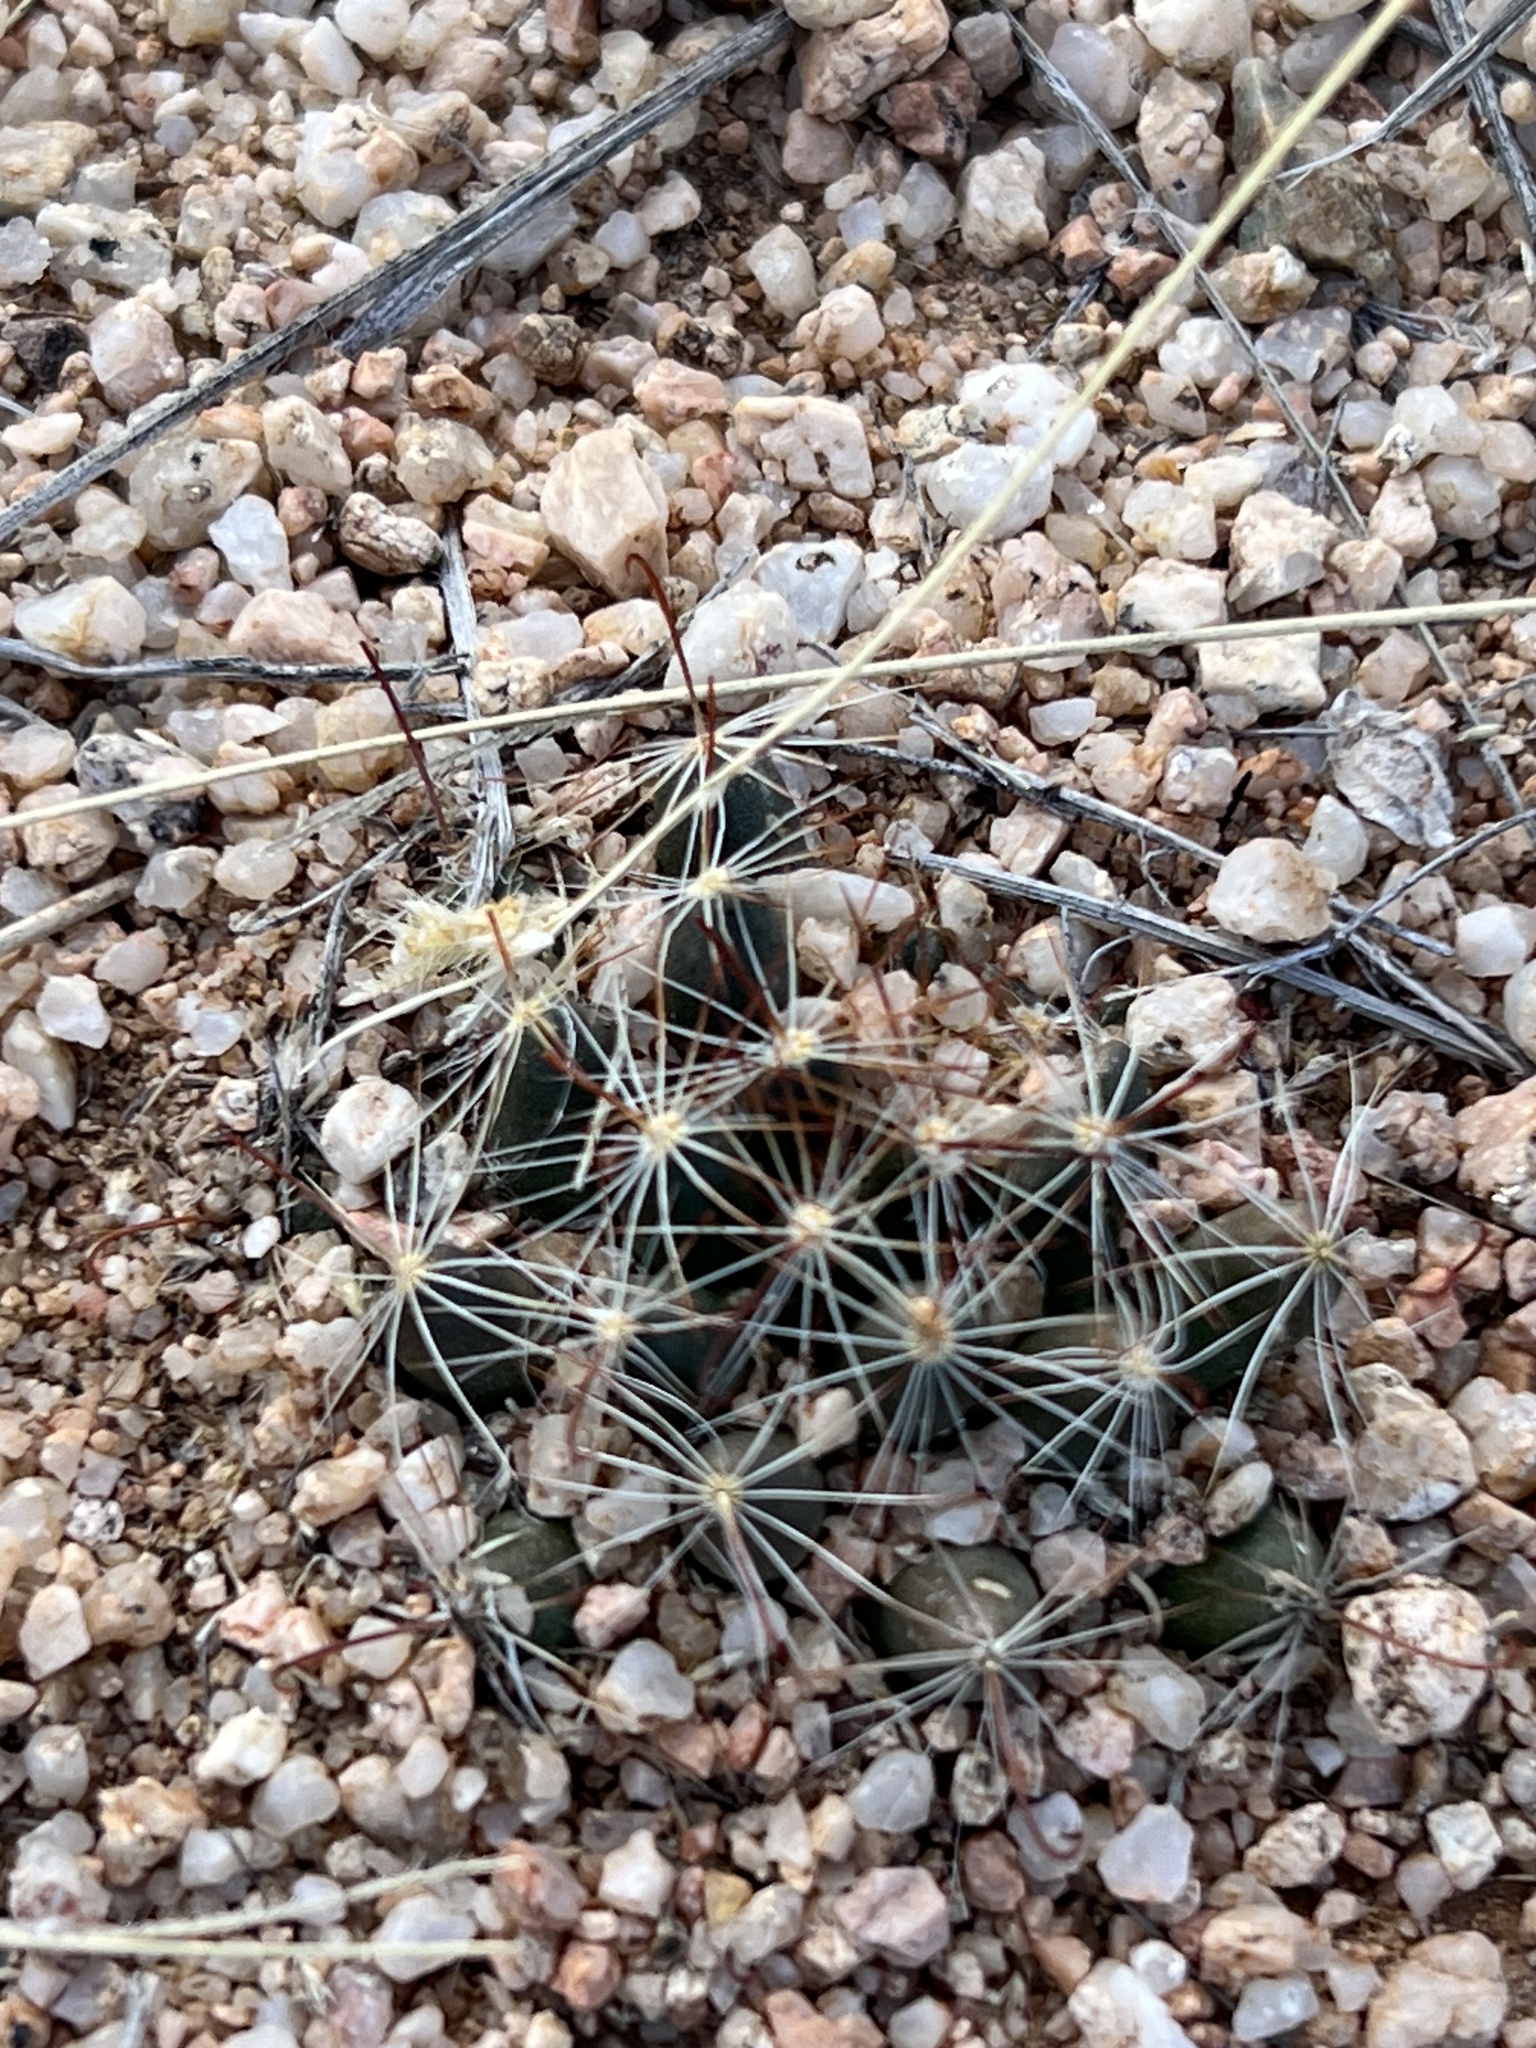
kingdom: Plantae
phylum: Tracheophyta
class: Magnoliopsida
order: Caryophyllales
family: Cactaceae
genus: Cochemiea
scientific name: Cochemiea wrightii
